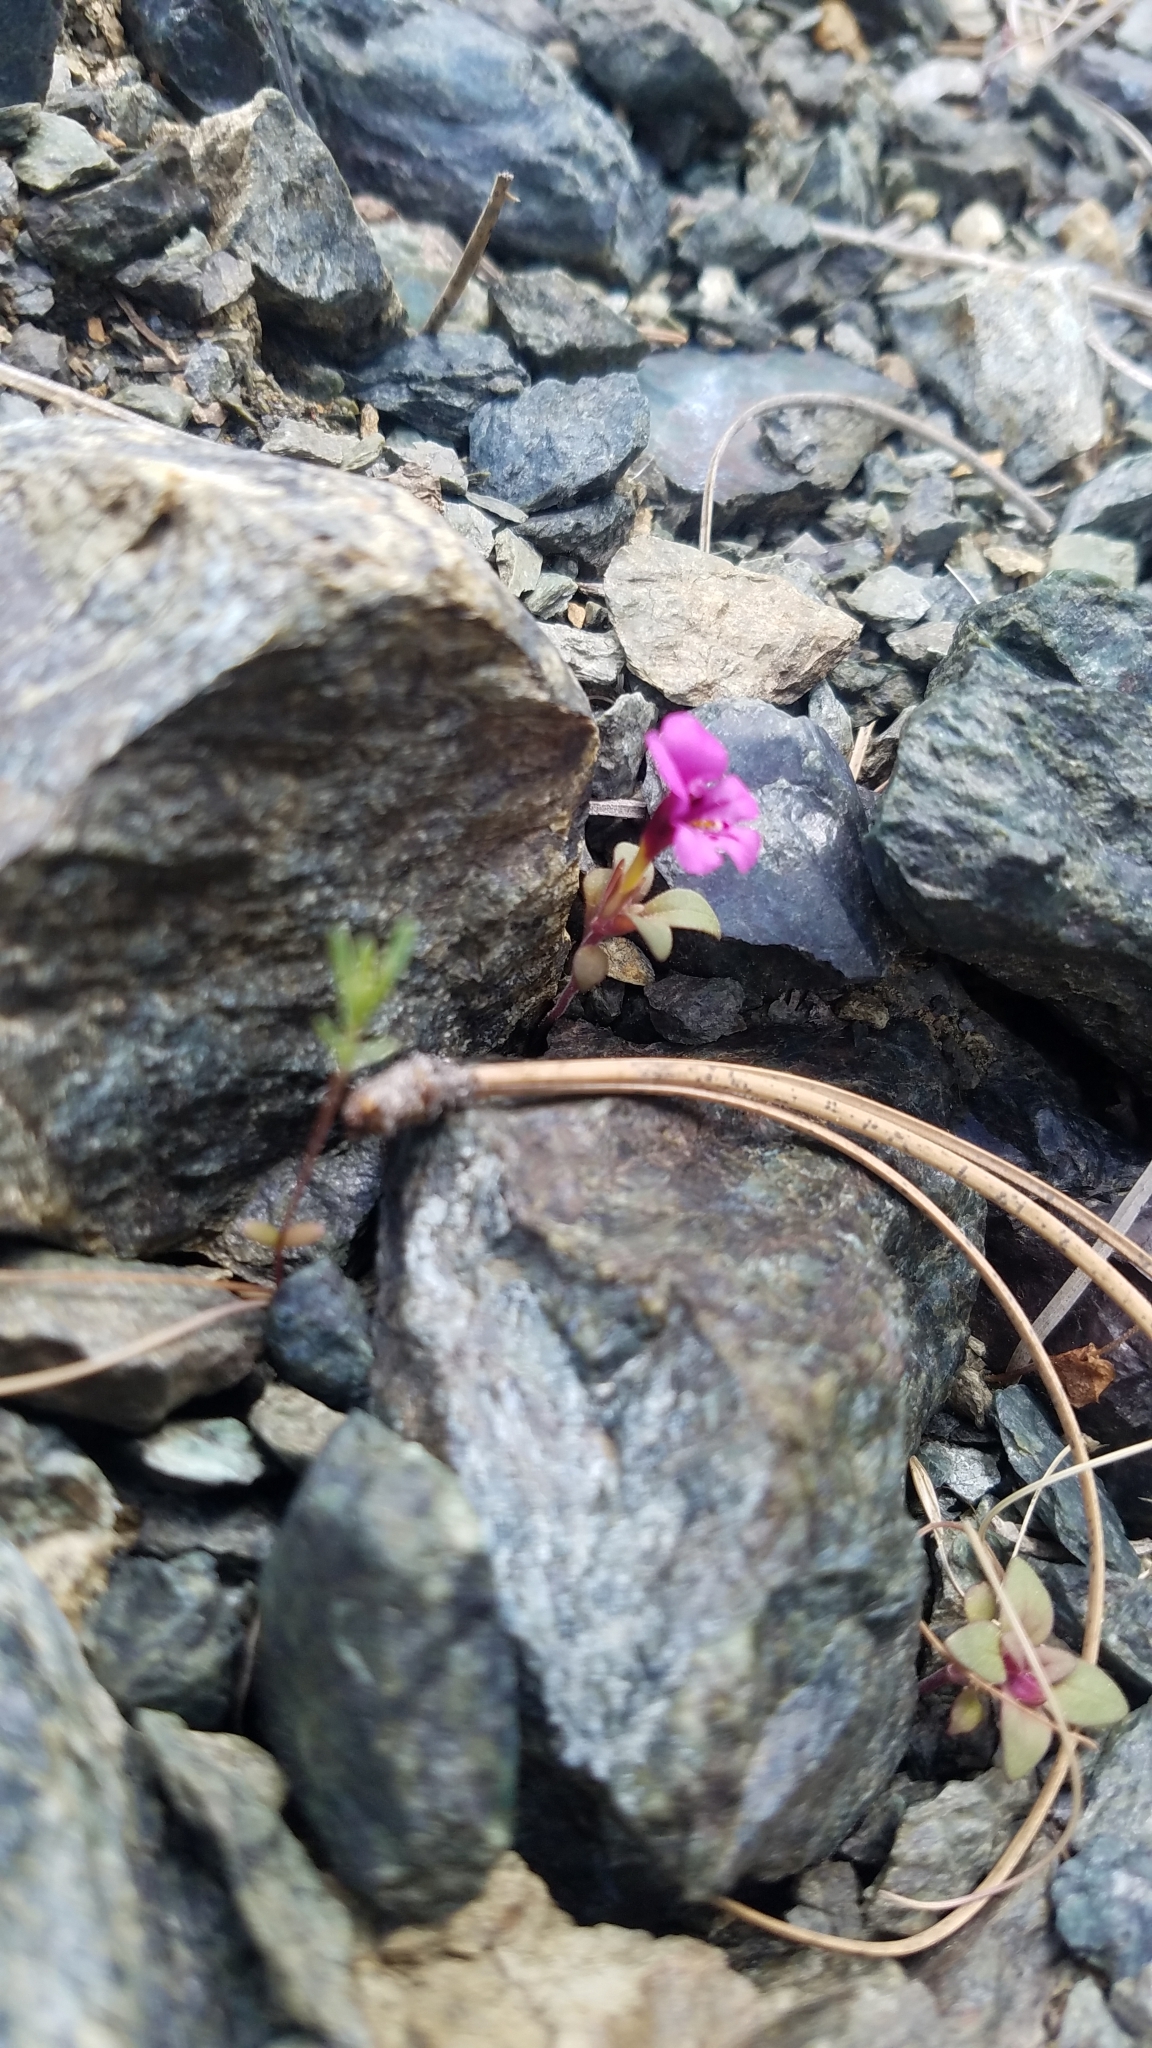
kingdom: Plantae
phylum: Tracheophyta
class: Magnoliopsida
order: Lamiales
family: Phrymaceae
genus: Diplacus
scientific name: Diplacus nanus
